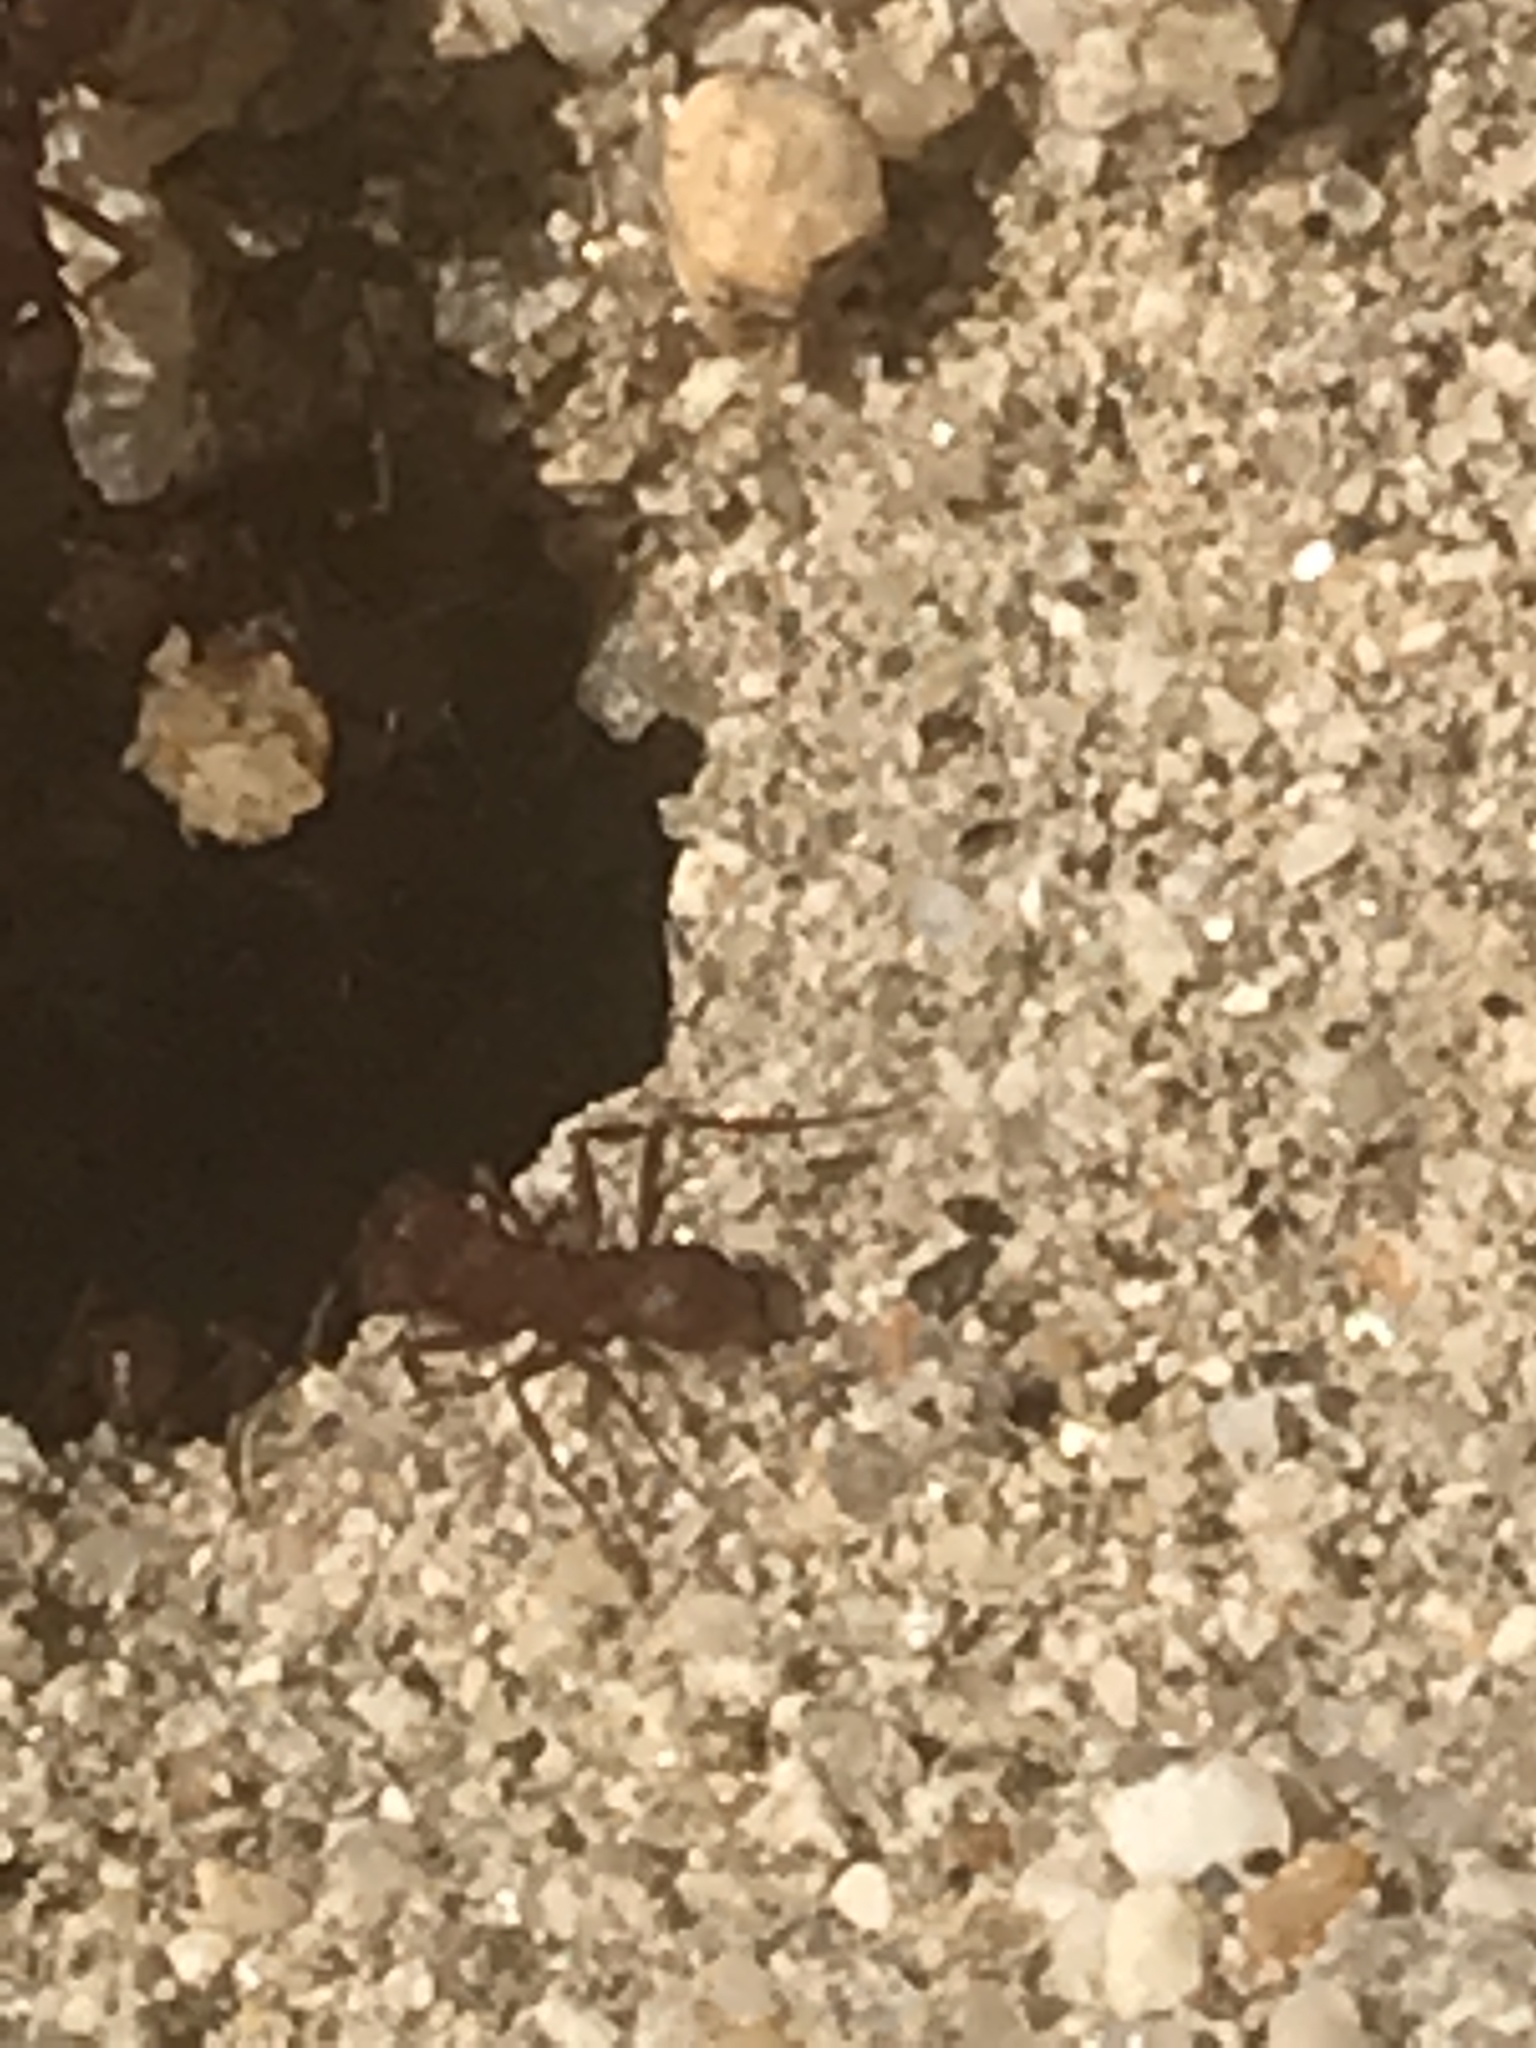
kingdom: Animalia
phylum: Arthropoda
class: Insecta
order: Hymenoptera
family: Formicidae
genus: Acromyrmex
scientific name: Acromyrmex versicolor
